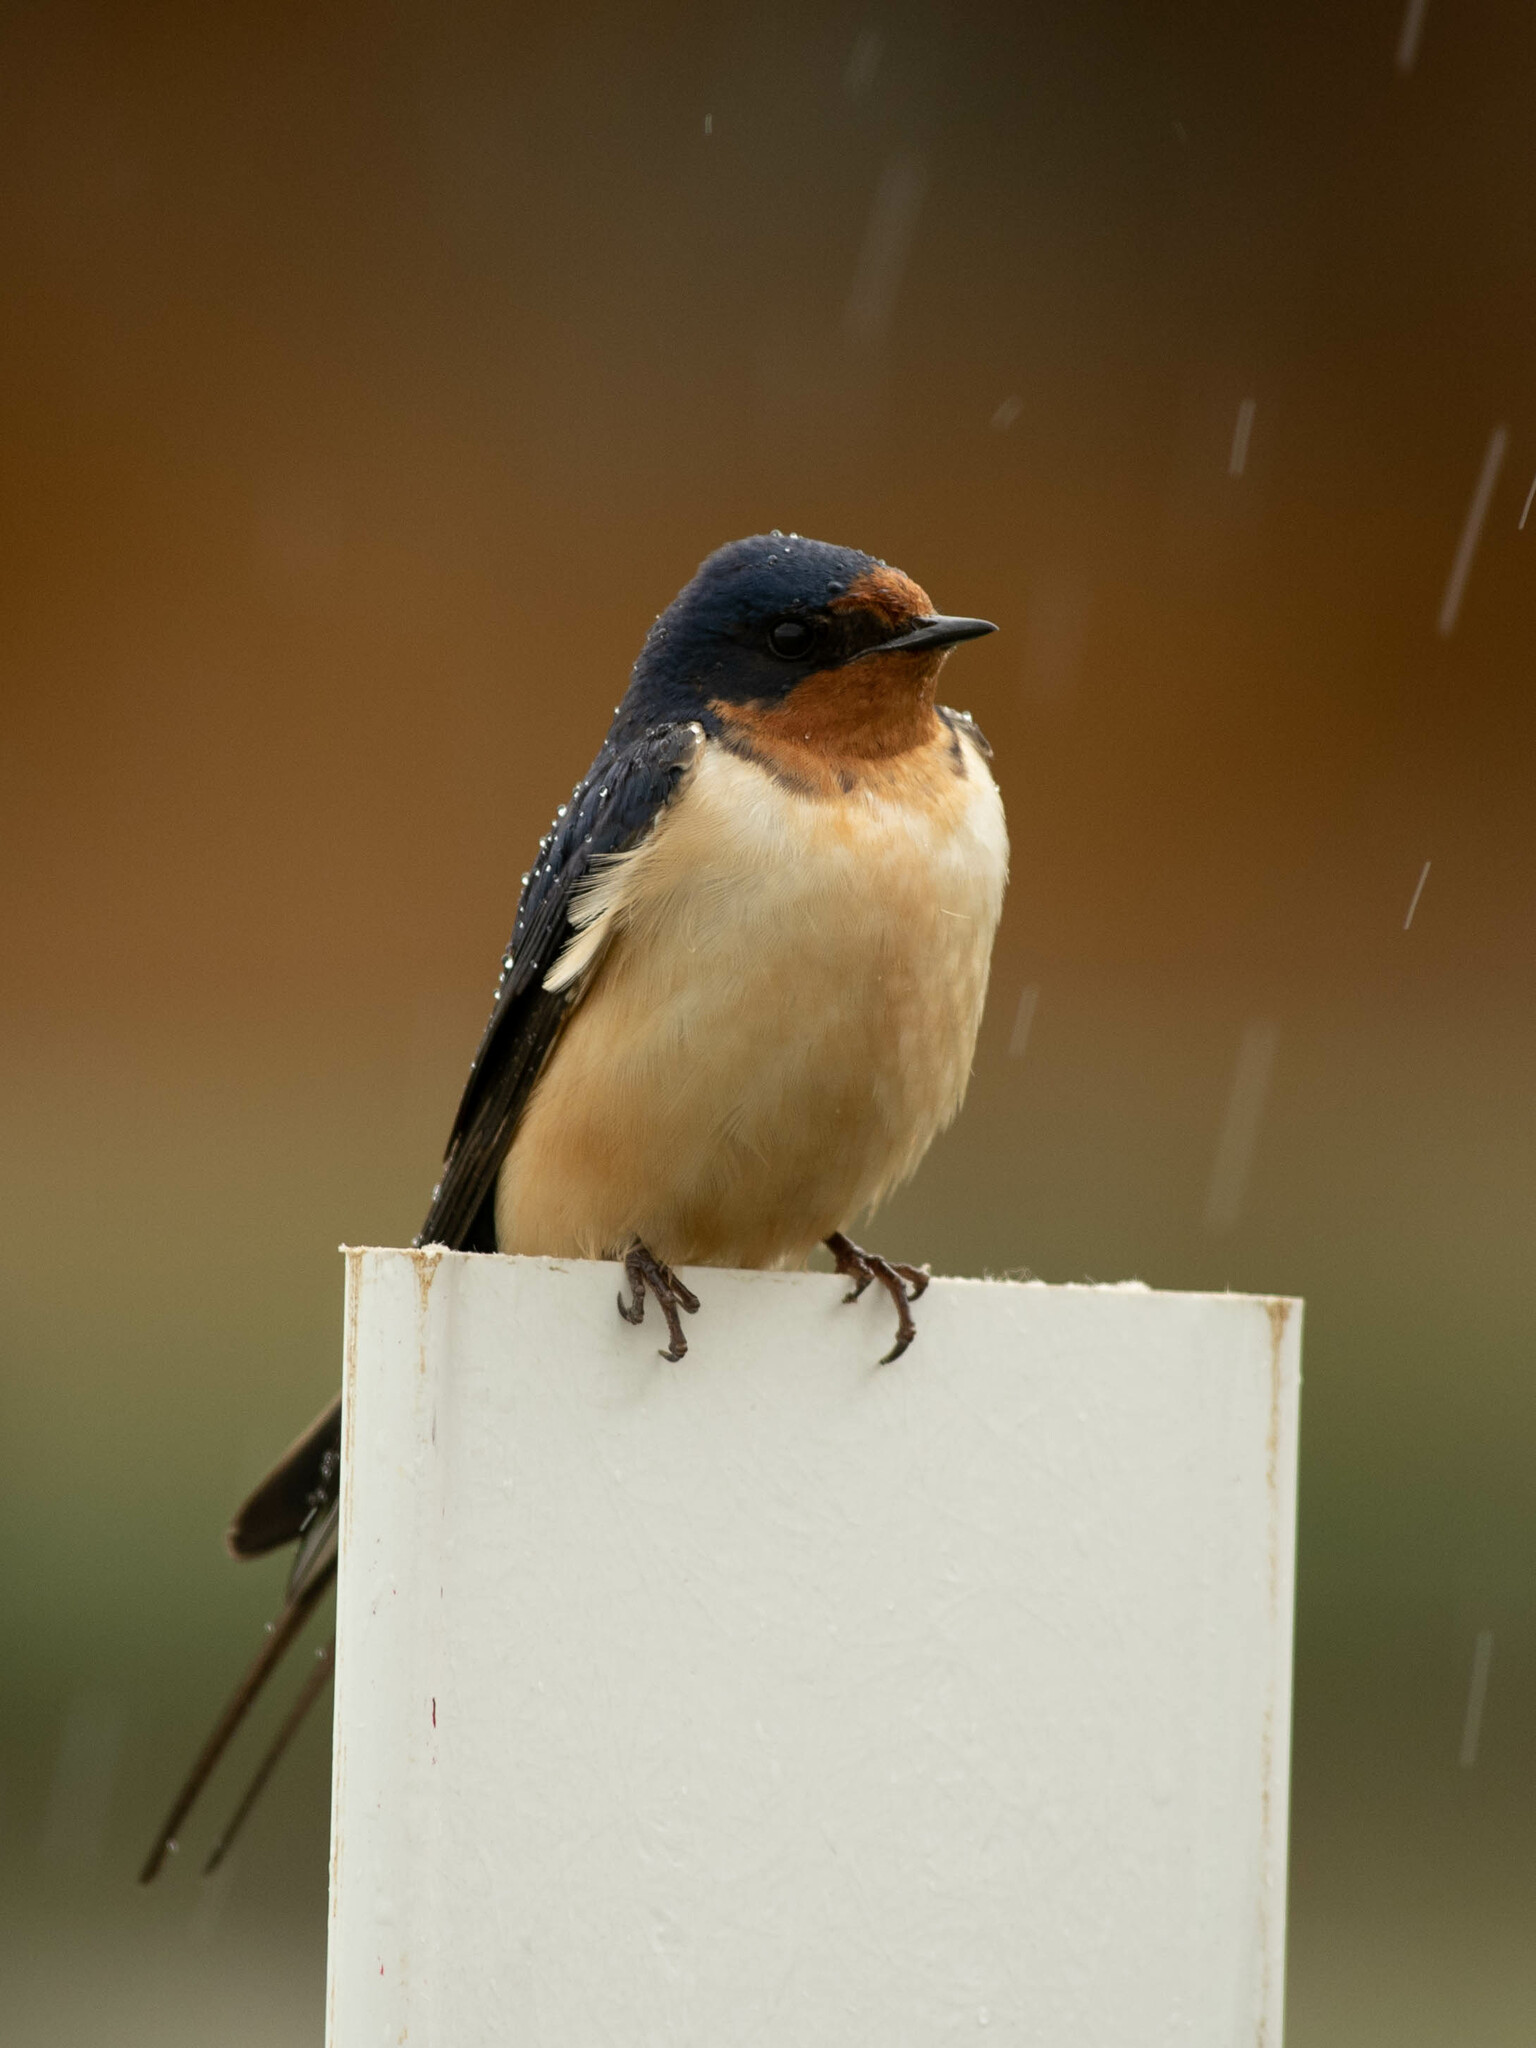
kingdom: Animalia
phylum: Chordata
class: Aves
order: Passeriformes
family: Hirundinidae
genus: Hirundo
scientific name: Hirundo rustica
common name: Barn swallow
